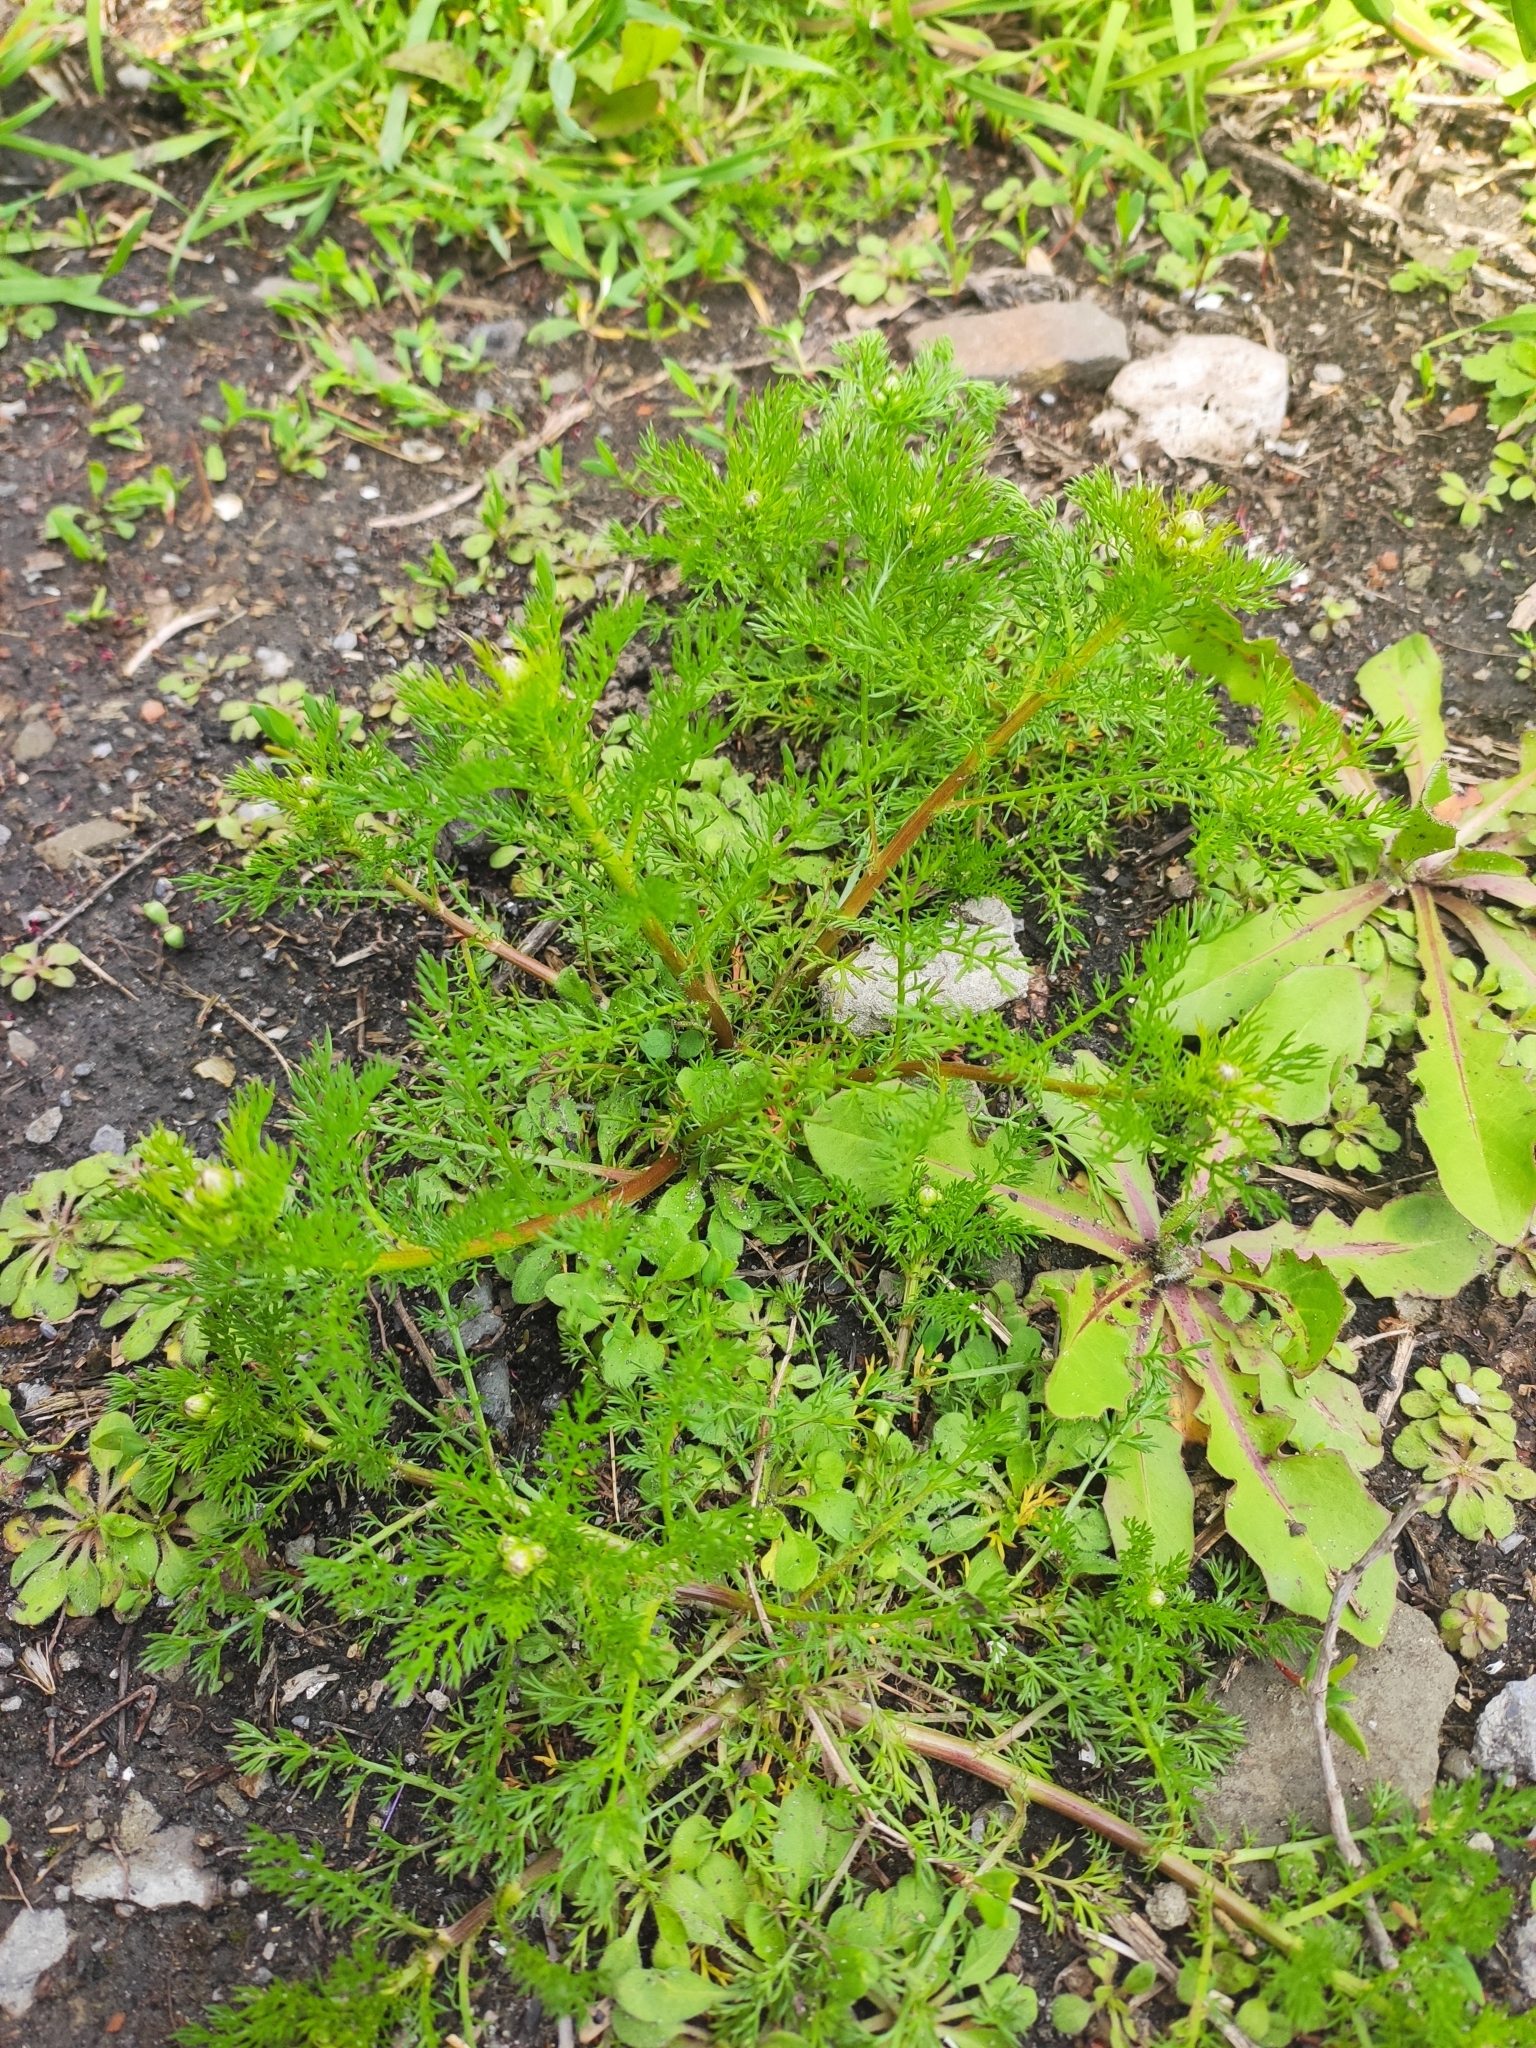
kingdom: Plantae
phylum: Tracheophyta
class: Magnoliopsida
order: Asterales
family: Asteraceae
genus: Tripleurospermum
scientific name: Tripleurospermum inodorum
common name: Scentless mayweed
